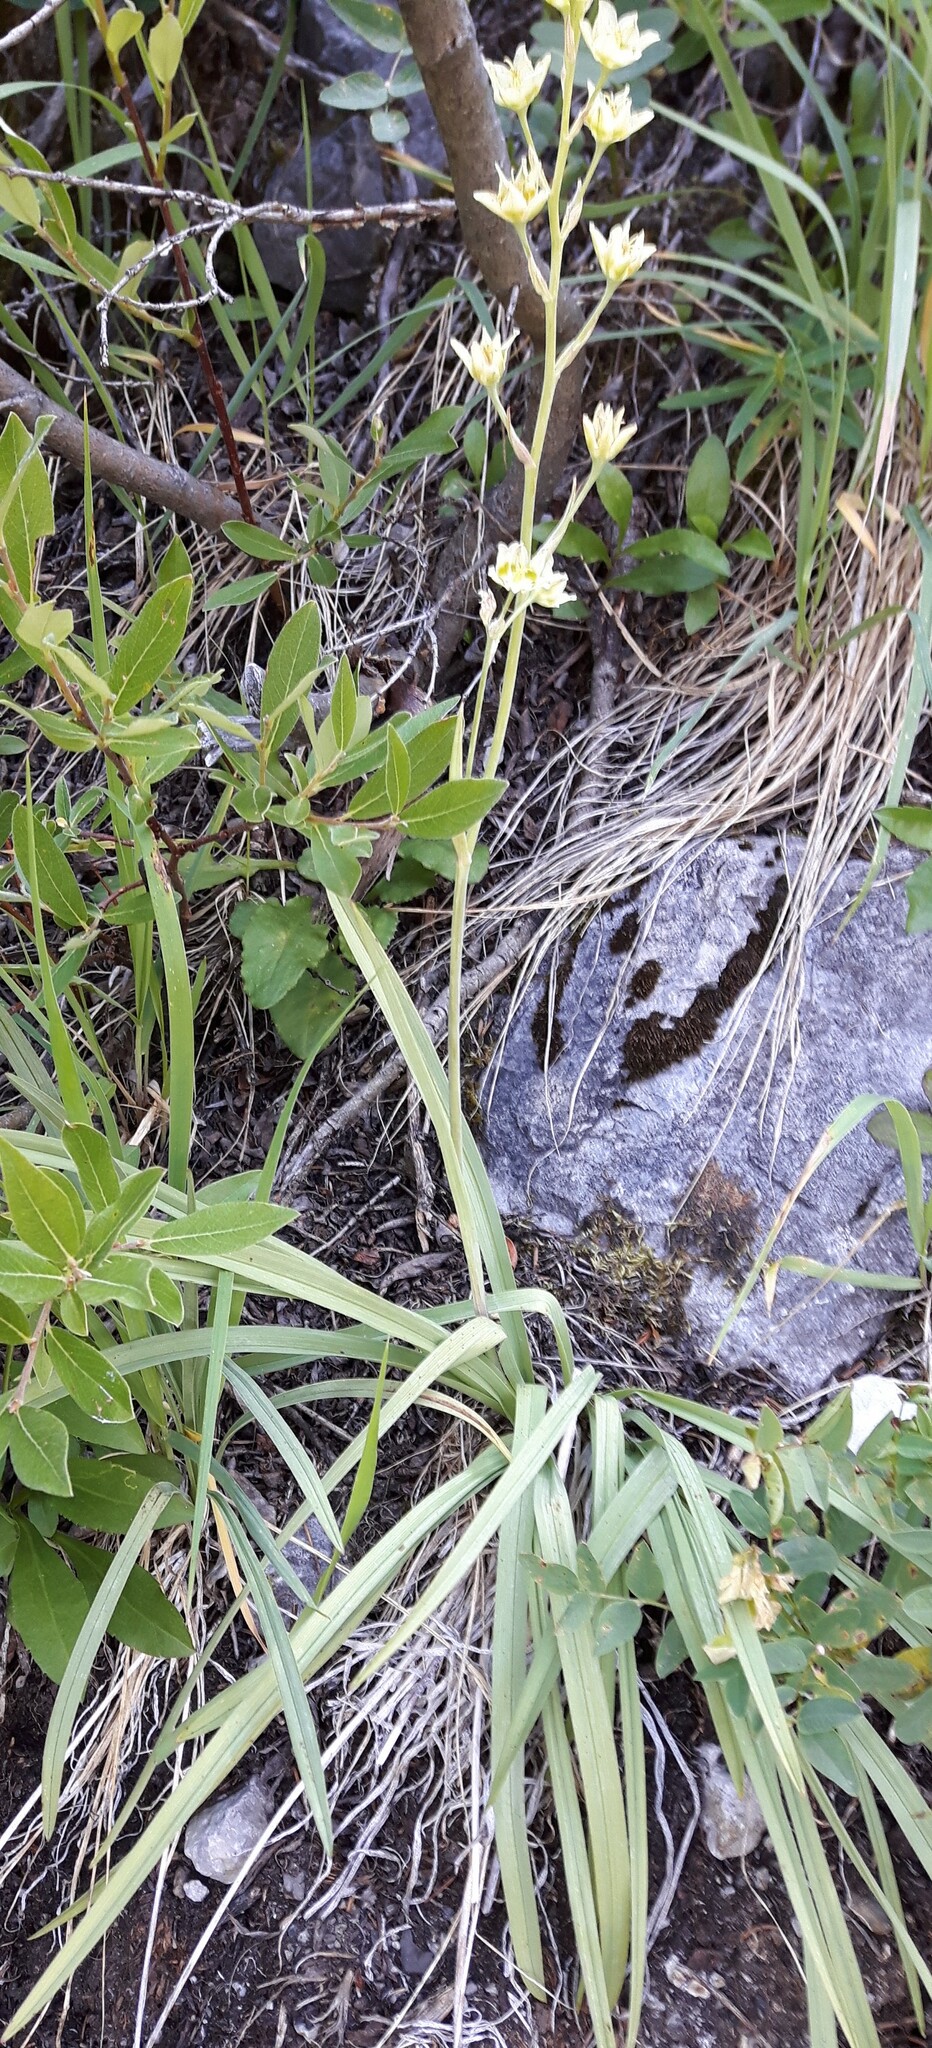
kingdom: Plantae
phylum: Tracheophyta
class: Liliopsida
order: Liliales
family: Melanthiaceae
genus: Anticlea
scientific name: Anticlea elegans
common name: Mountain death camas
